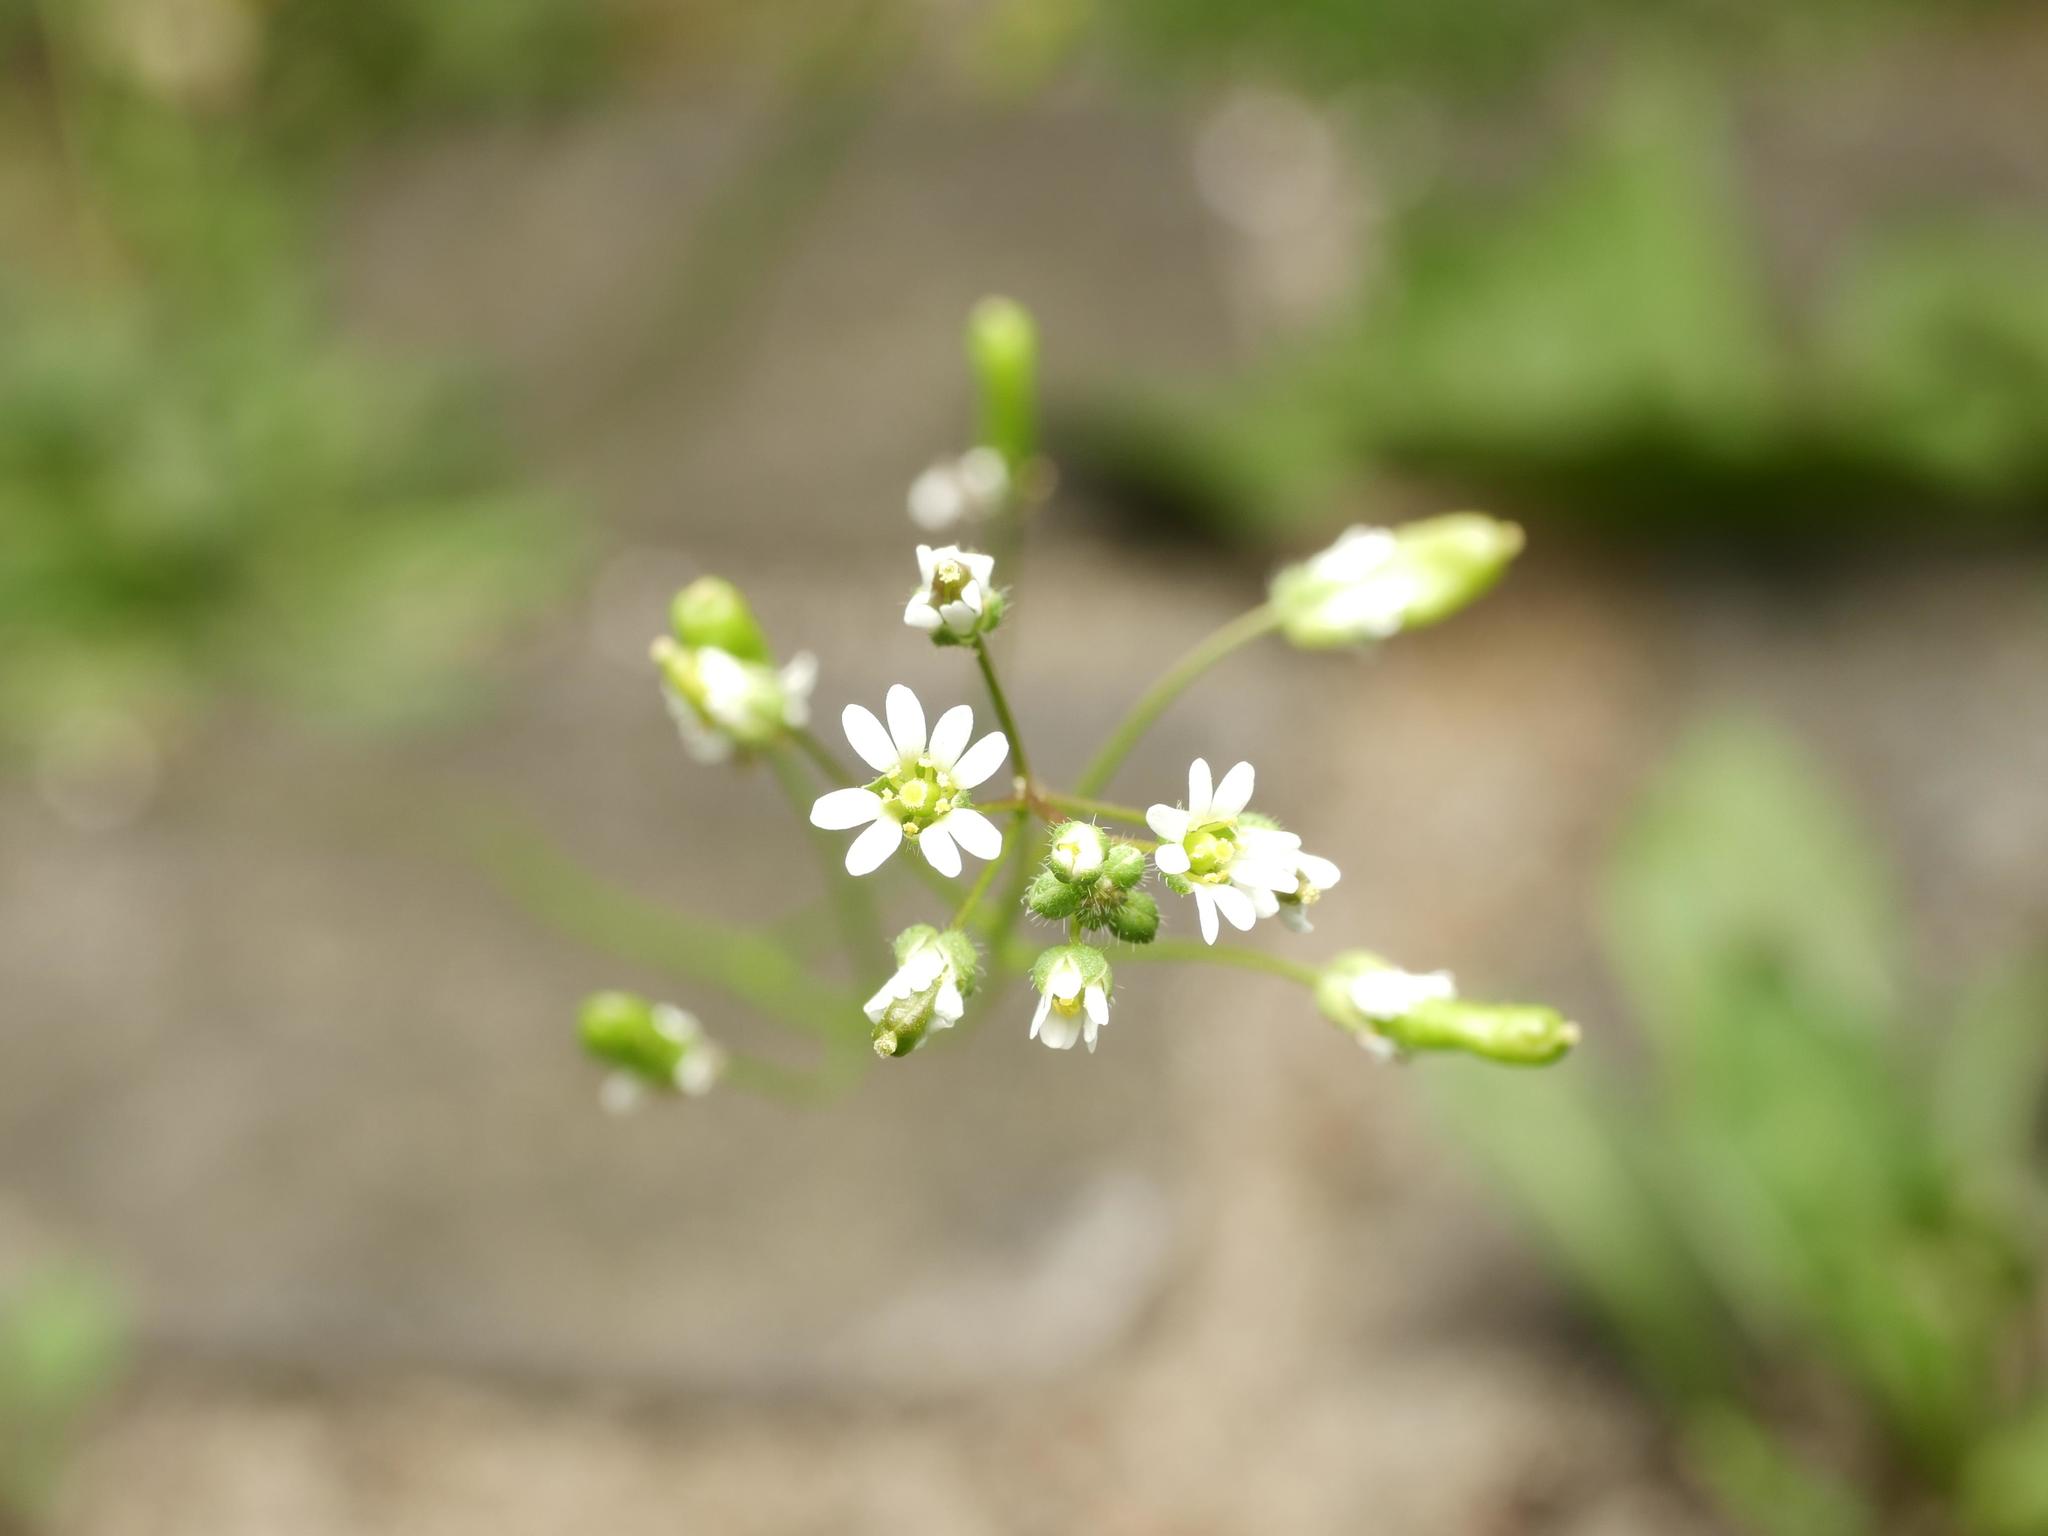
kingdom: Plantae
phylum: Tracheophyta
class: Magnoliopsida
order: Brassicales
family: Brassicaceae
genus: Draba
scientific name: Draba verna
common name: Spring draba
